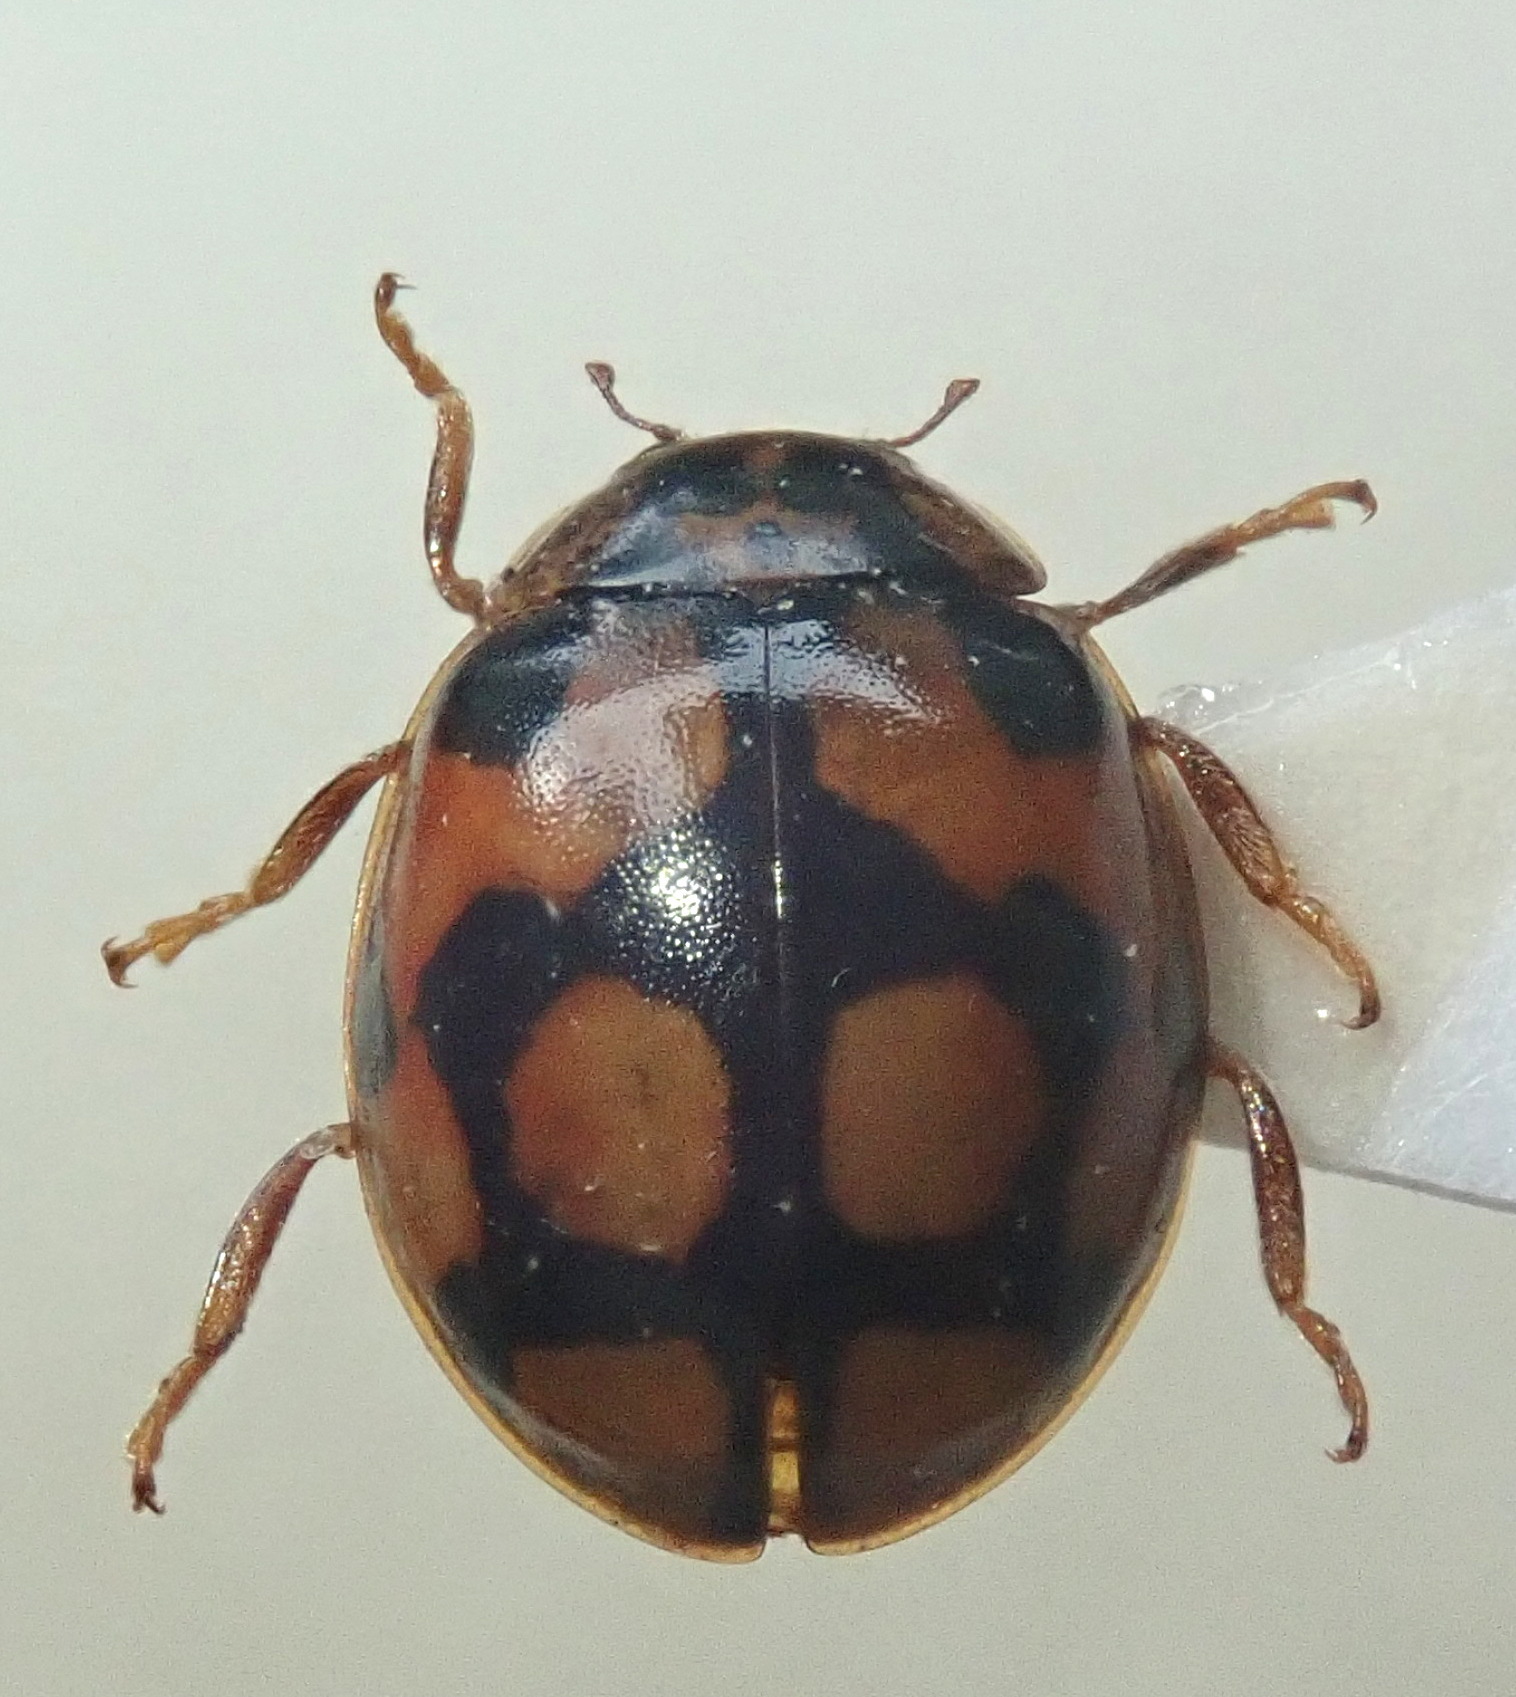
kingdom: Animalia
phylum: Arthropoda
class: Insecta
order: Coleoptera
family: Coccinellidae
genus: Adalia
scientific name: Adalia decempunctata
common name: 10-spot ladybird
